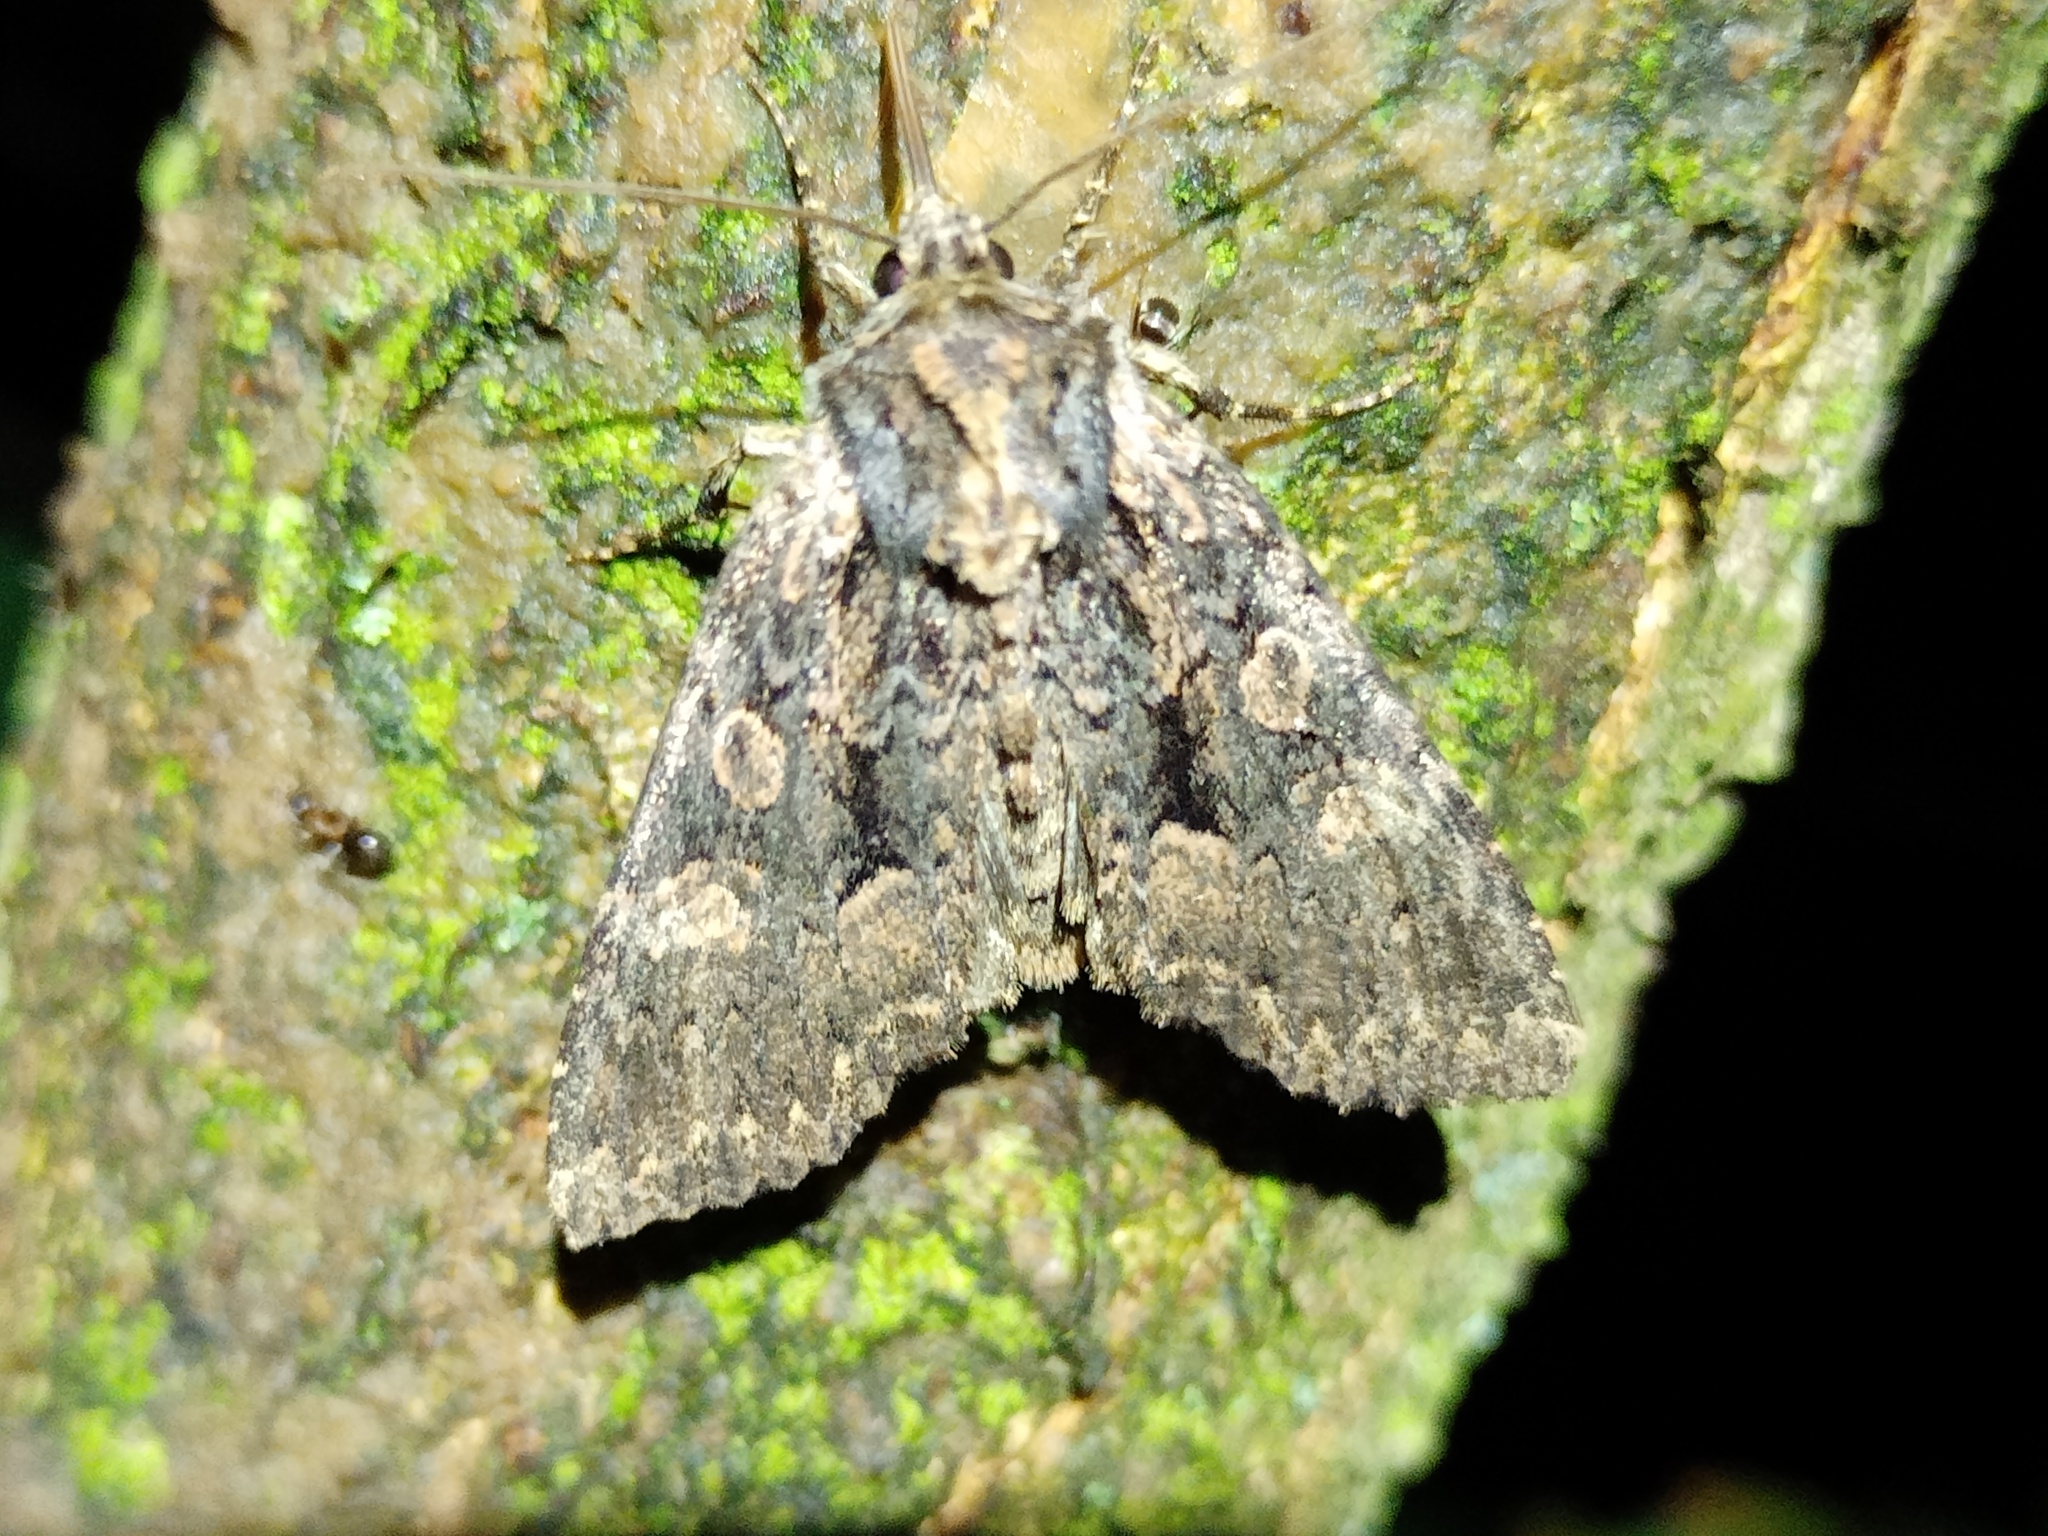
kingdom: Animalia
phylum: Arthropoda
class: Insecta
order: Lepidoptera
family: Noctuidae
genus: Mniotype
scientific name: Mniotype satura
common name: Beautiful arches
